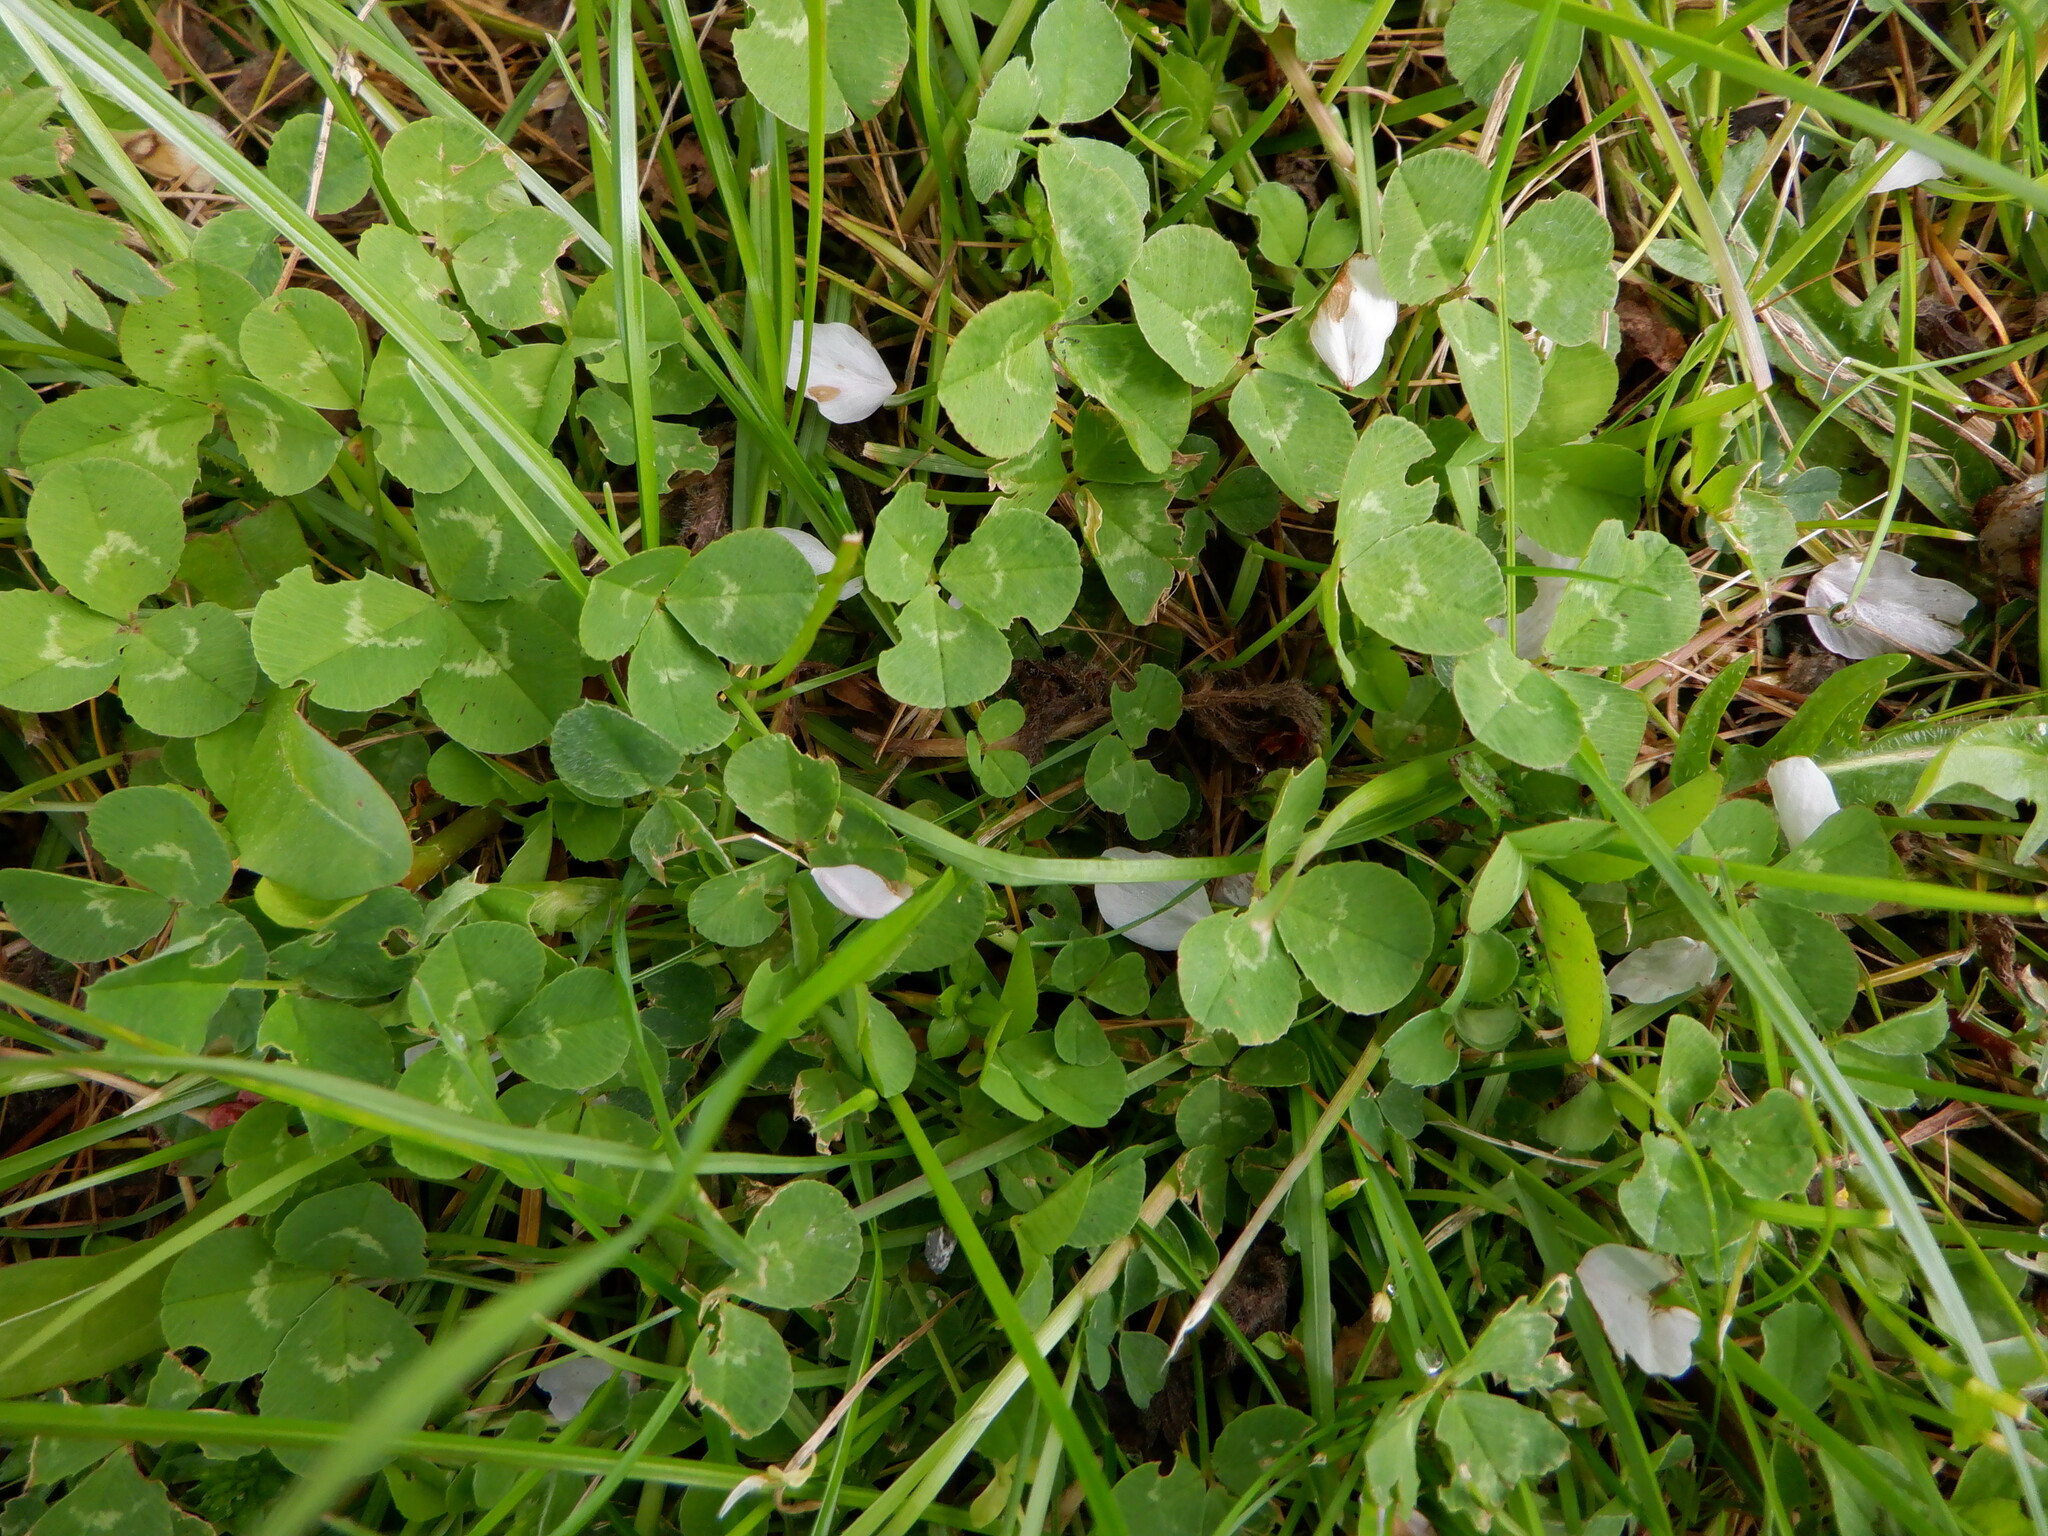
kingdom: Plantae
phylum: Tracheophyta
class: Magnoliopsida
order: Fabales
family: Fabaceae
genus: Trifolium
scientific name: Trifolium repens
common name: White clover
